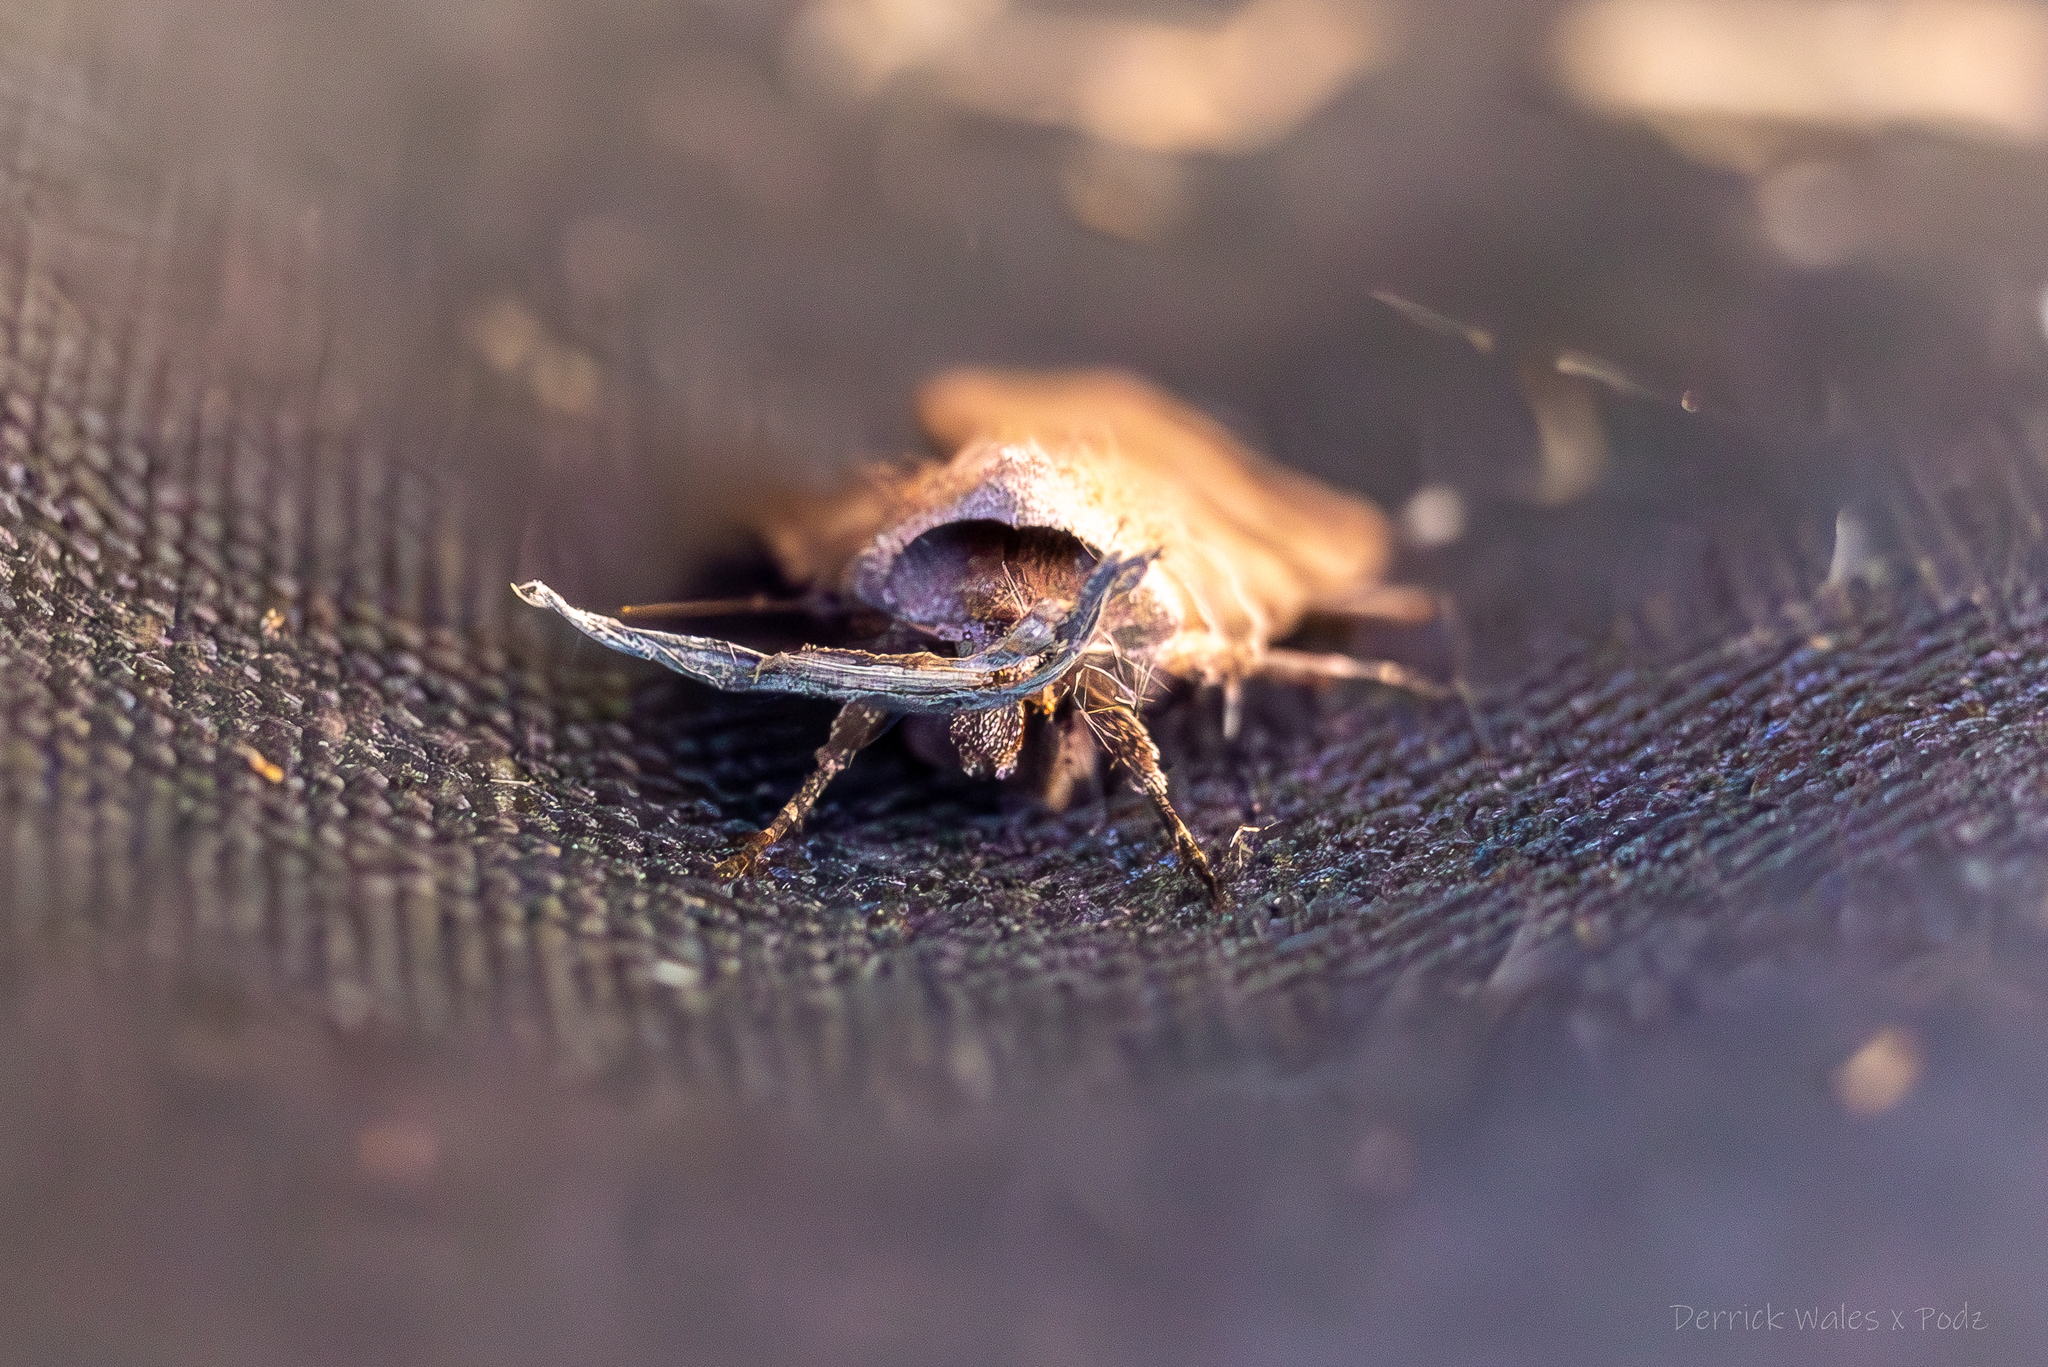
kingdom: Animalia
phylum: Arthropoda
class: Insecta
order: Lepidoptera
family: Noctuidae
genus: Agnorisma
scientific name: Agnorisma badinodis
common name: Pale-banded dart
